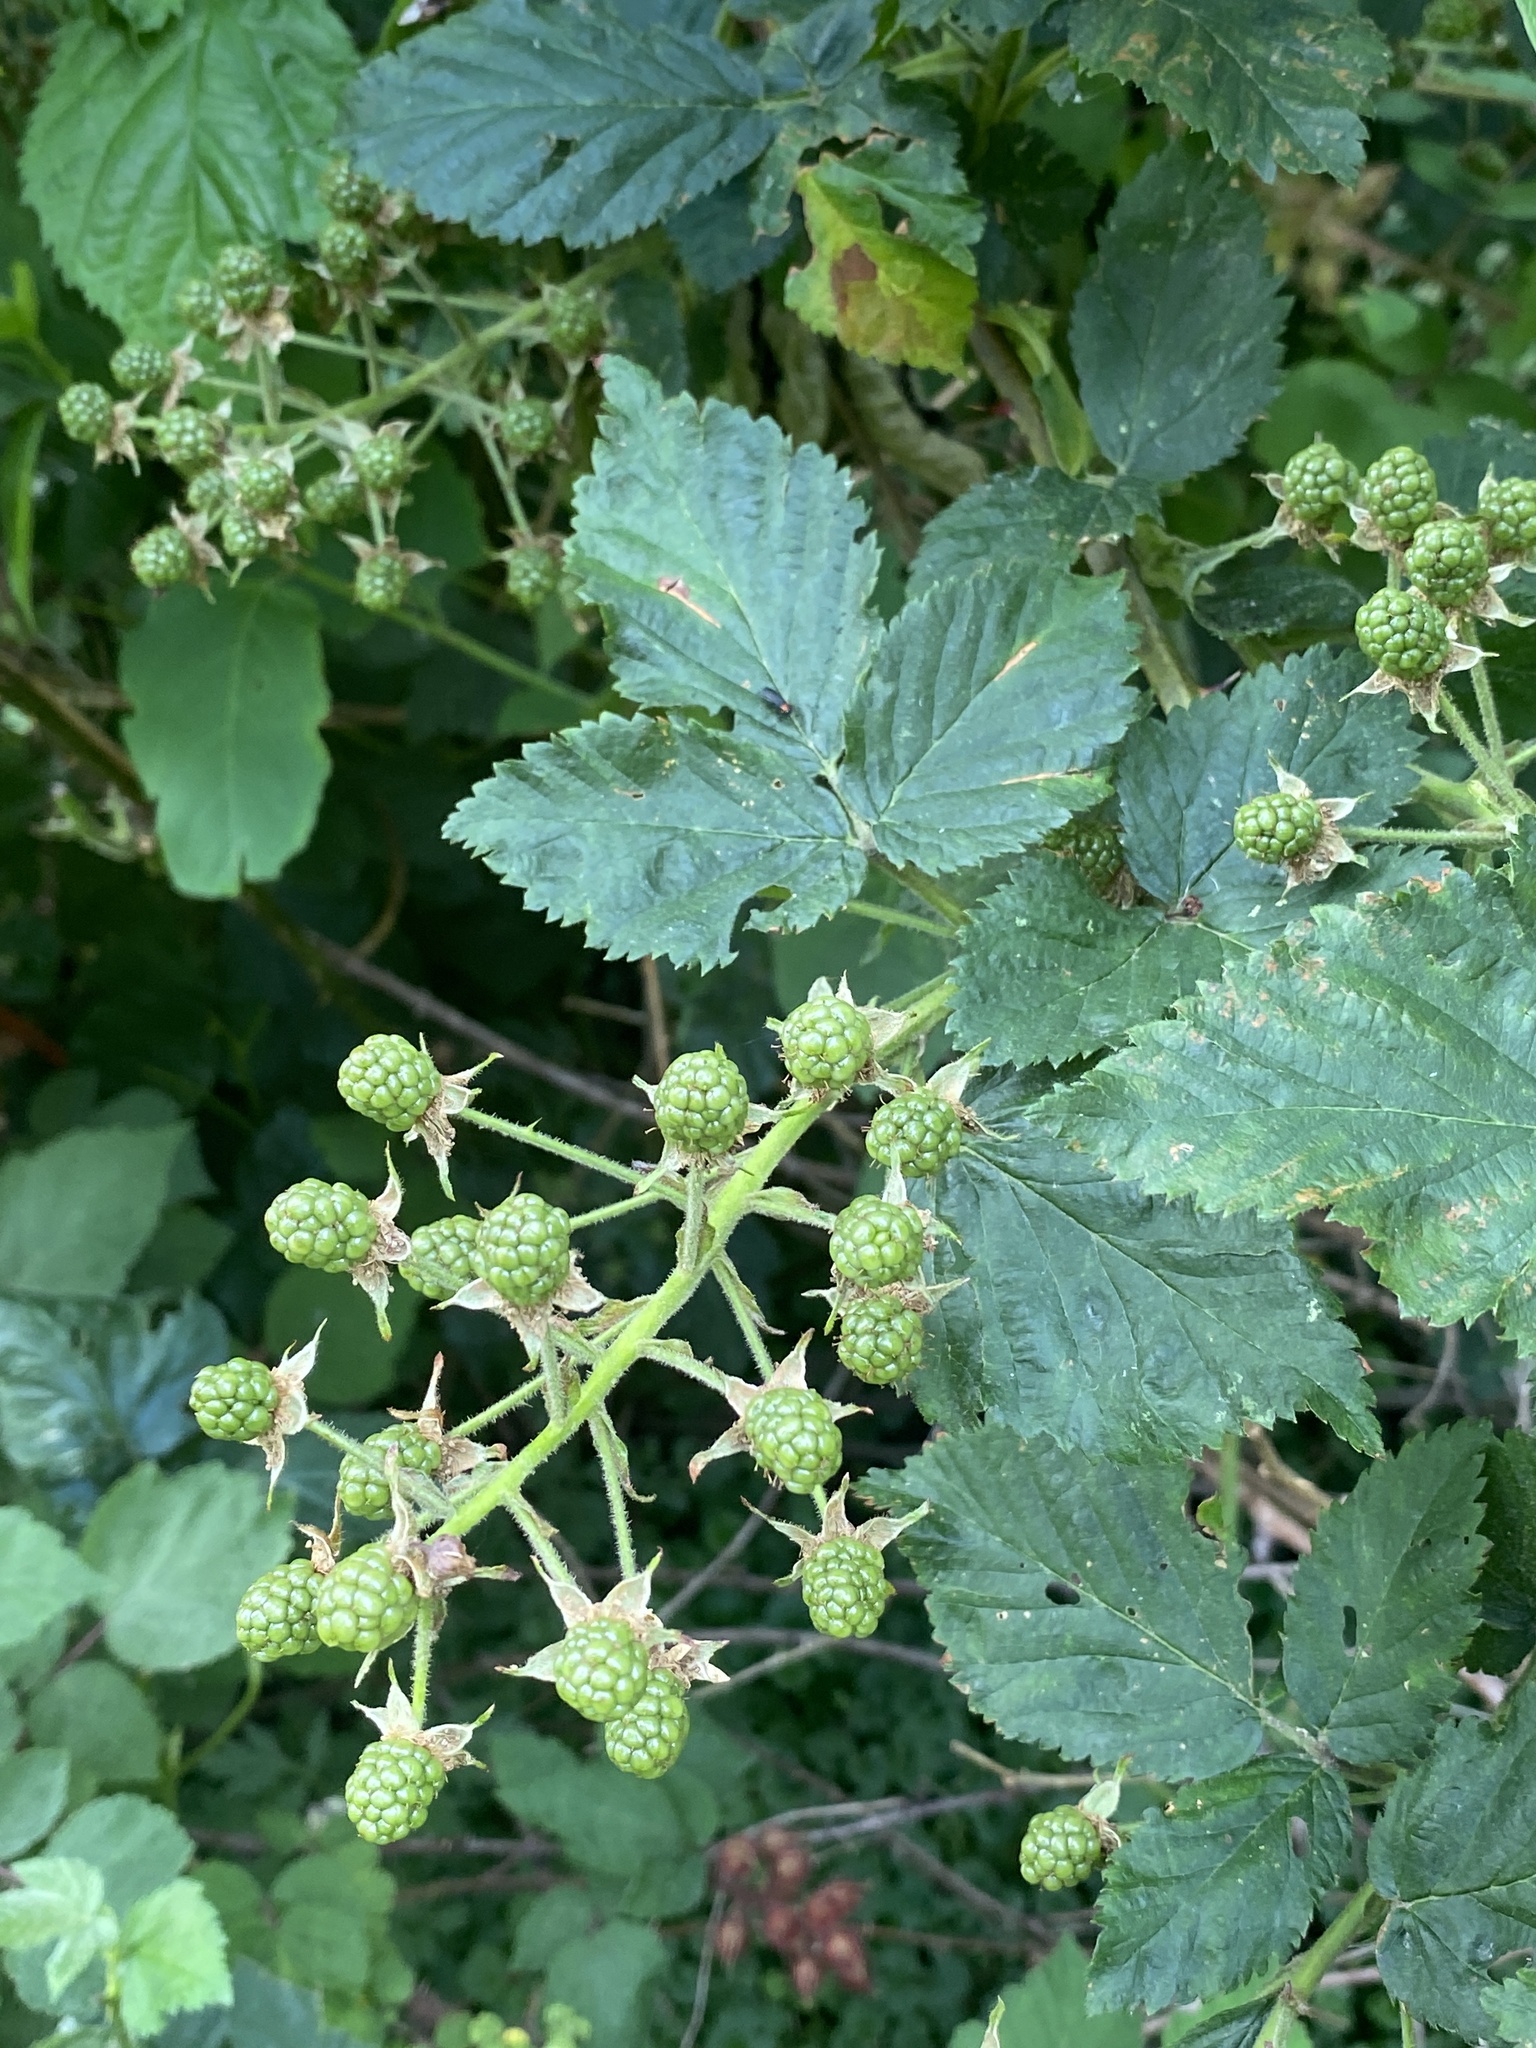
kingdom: Plantae
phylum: Tracheophyta
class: Magnoliopsida
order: Rosales
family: Rosaceae
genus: Rubus
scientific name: Rubus allegheniensis
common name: Allegheny blackberry
